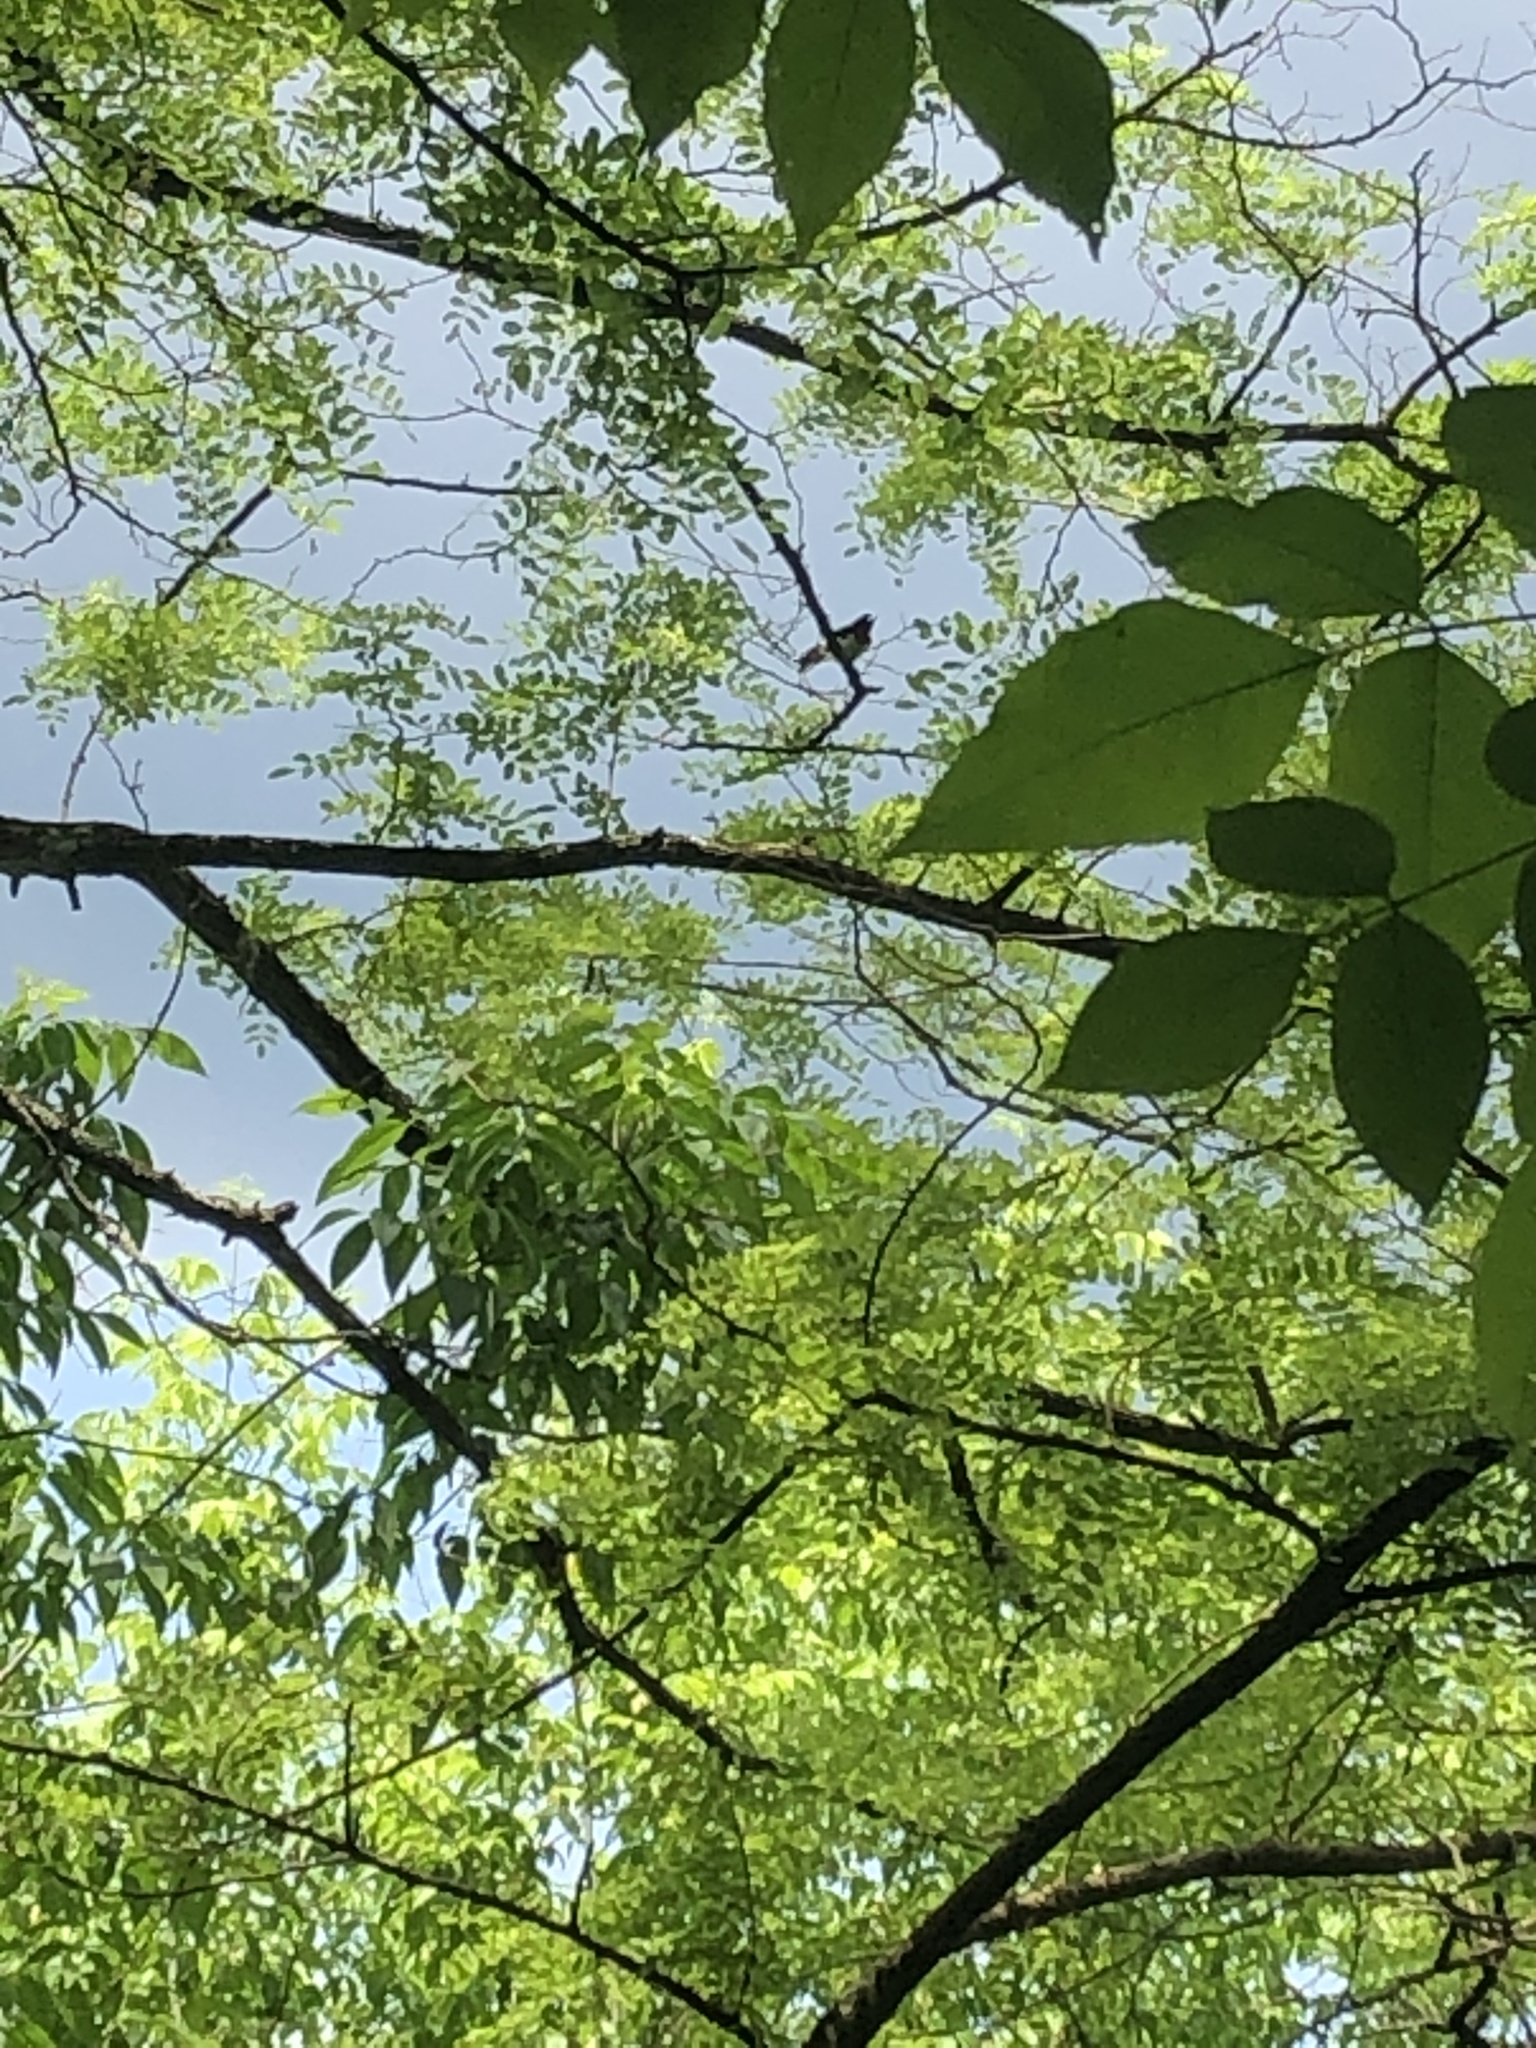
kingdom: Animalia
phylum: Chordata
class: Aves
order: Passeriformes
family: Cardinalidae
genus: Pheucticus
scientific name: Pheucticus ludovicianus
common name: Rose-breasted grosbeak
